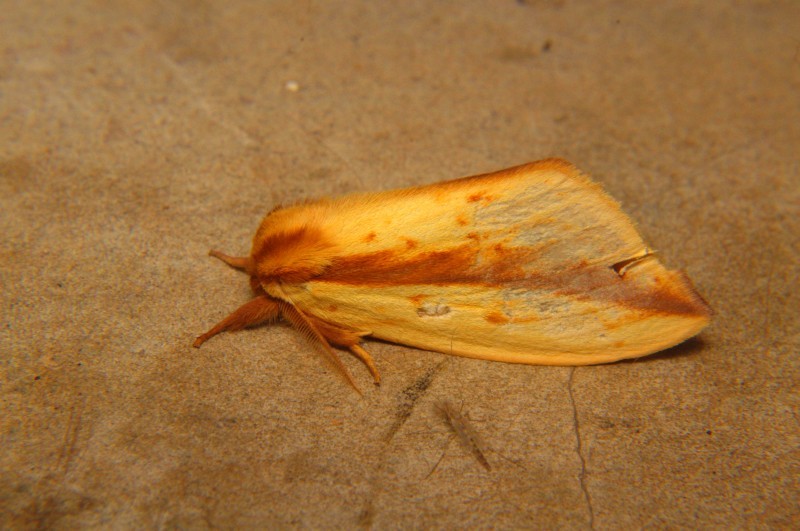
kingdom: Animalia
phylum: Arthropoda
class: Insecta
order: Lepidoptera
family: Notodontidae
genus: Bireta
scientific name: Bireta longivitta
